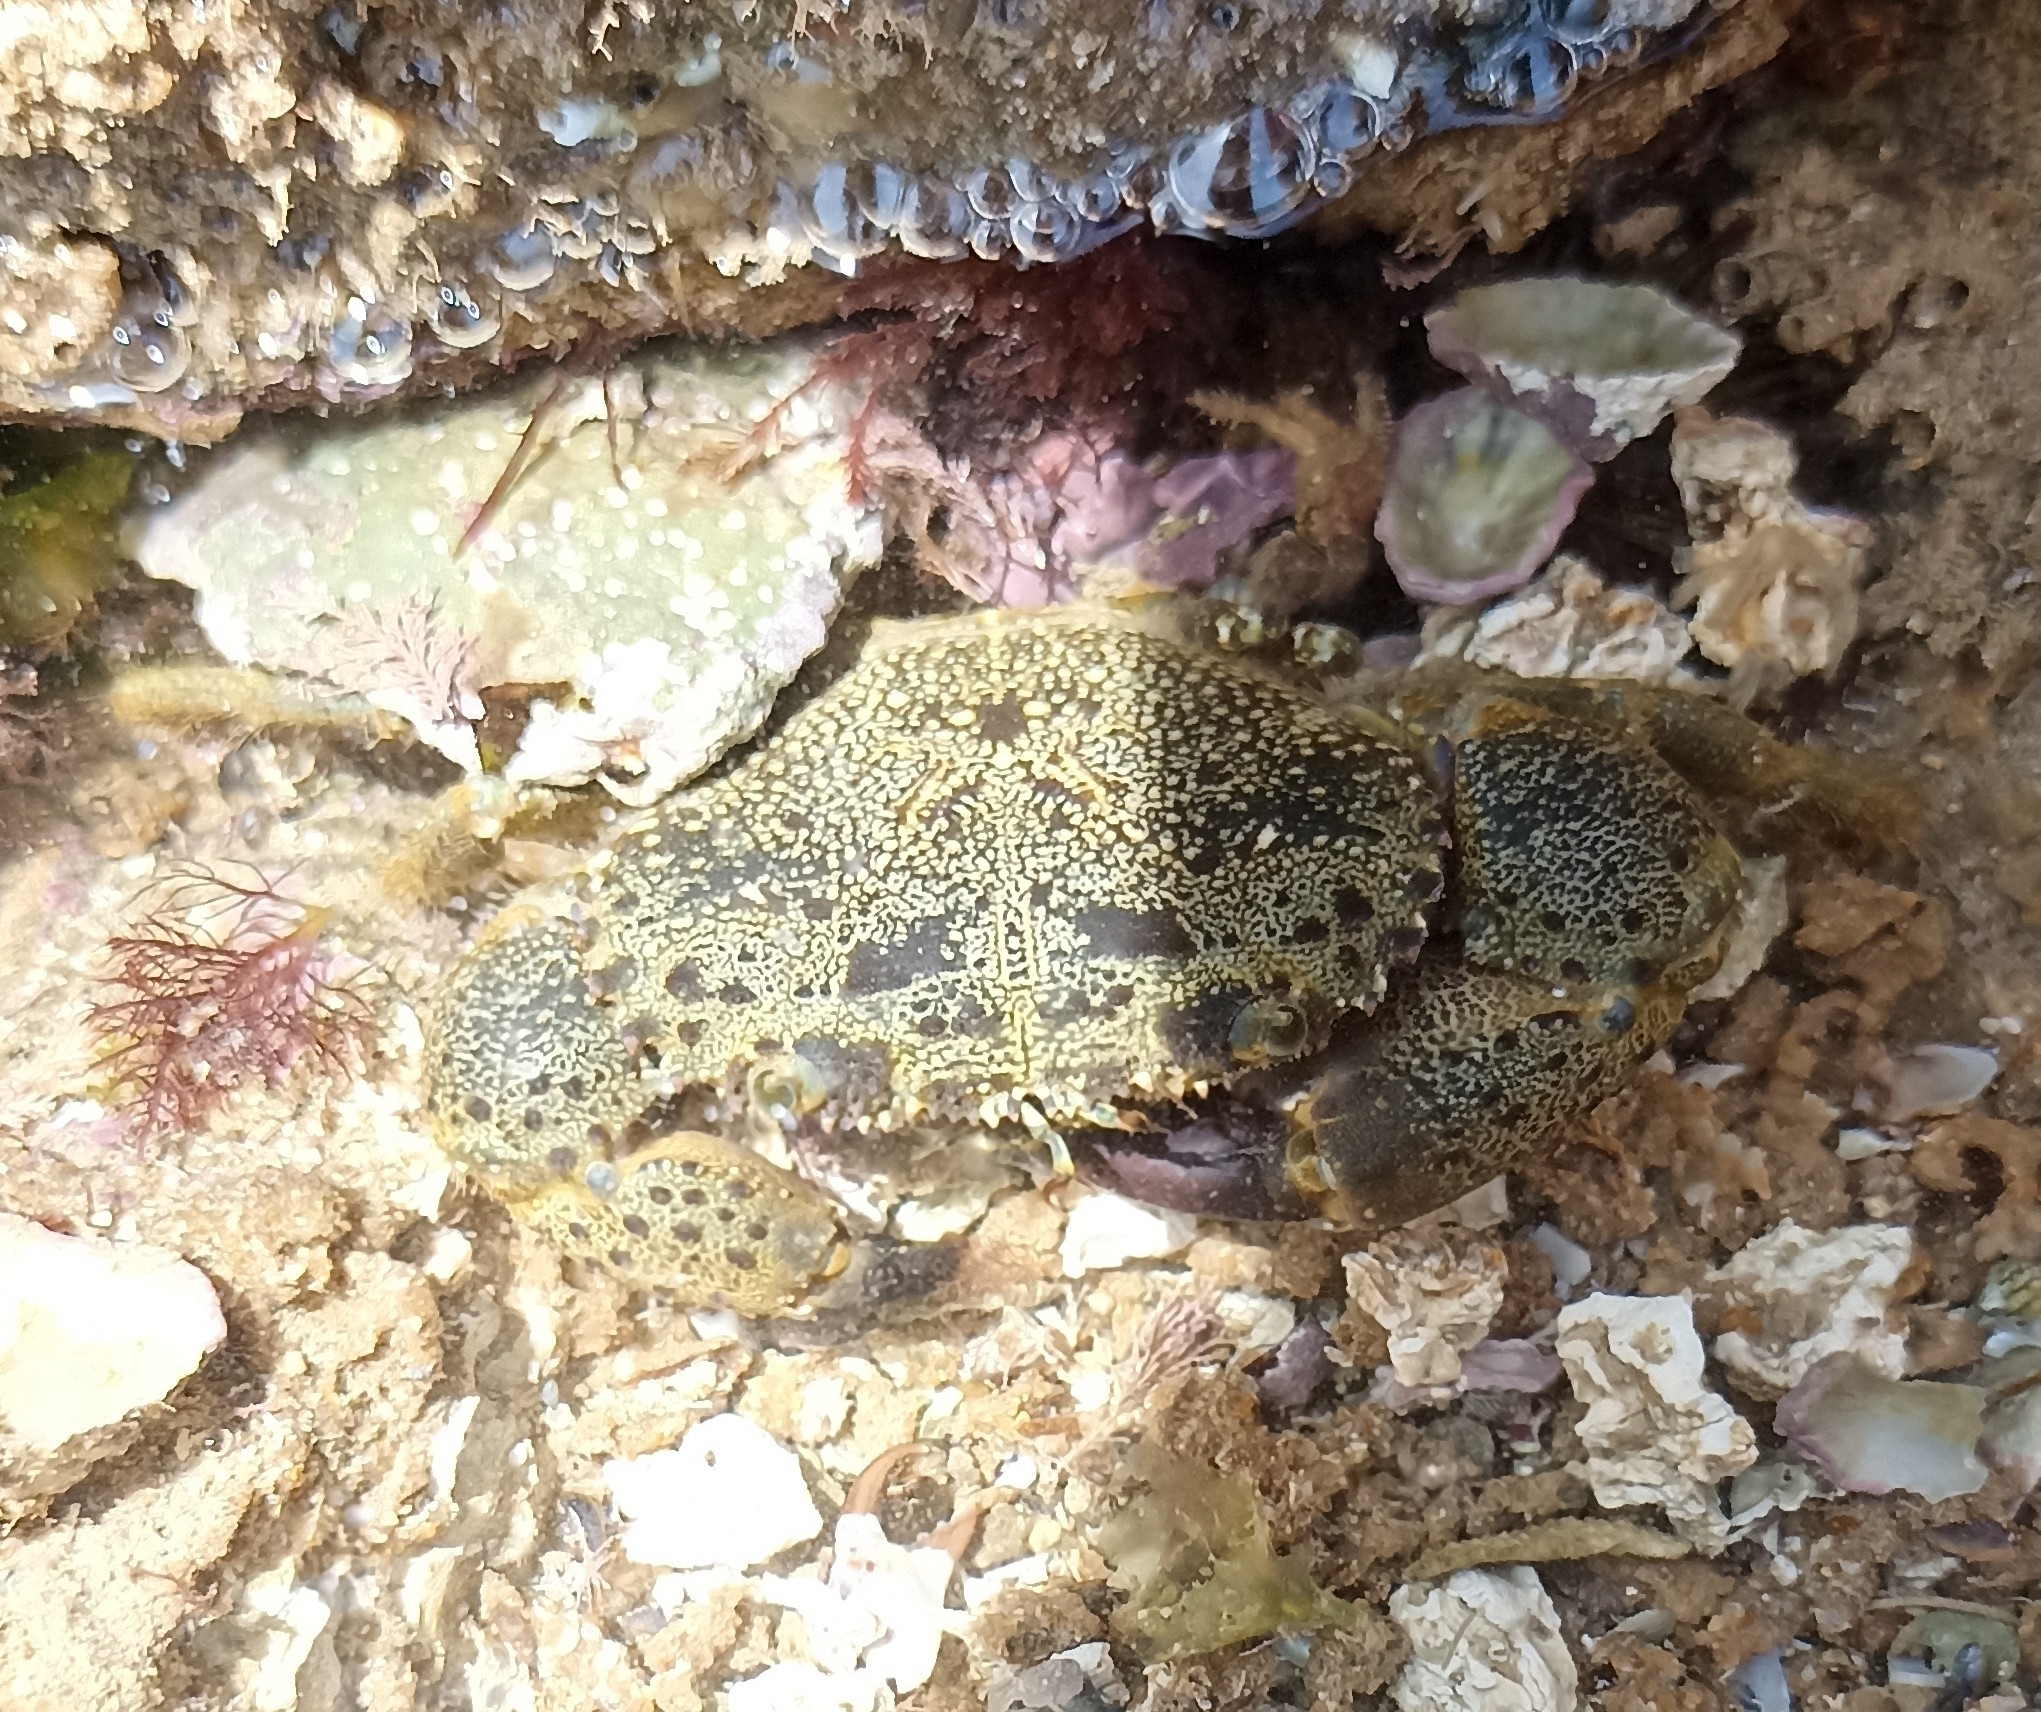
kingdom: Animalia
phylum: Arthropoda
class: Malacostraca
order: Decapoda
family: Eriphiidae
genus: Eriphia
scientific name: Eriphia verrucosa
